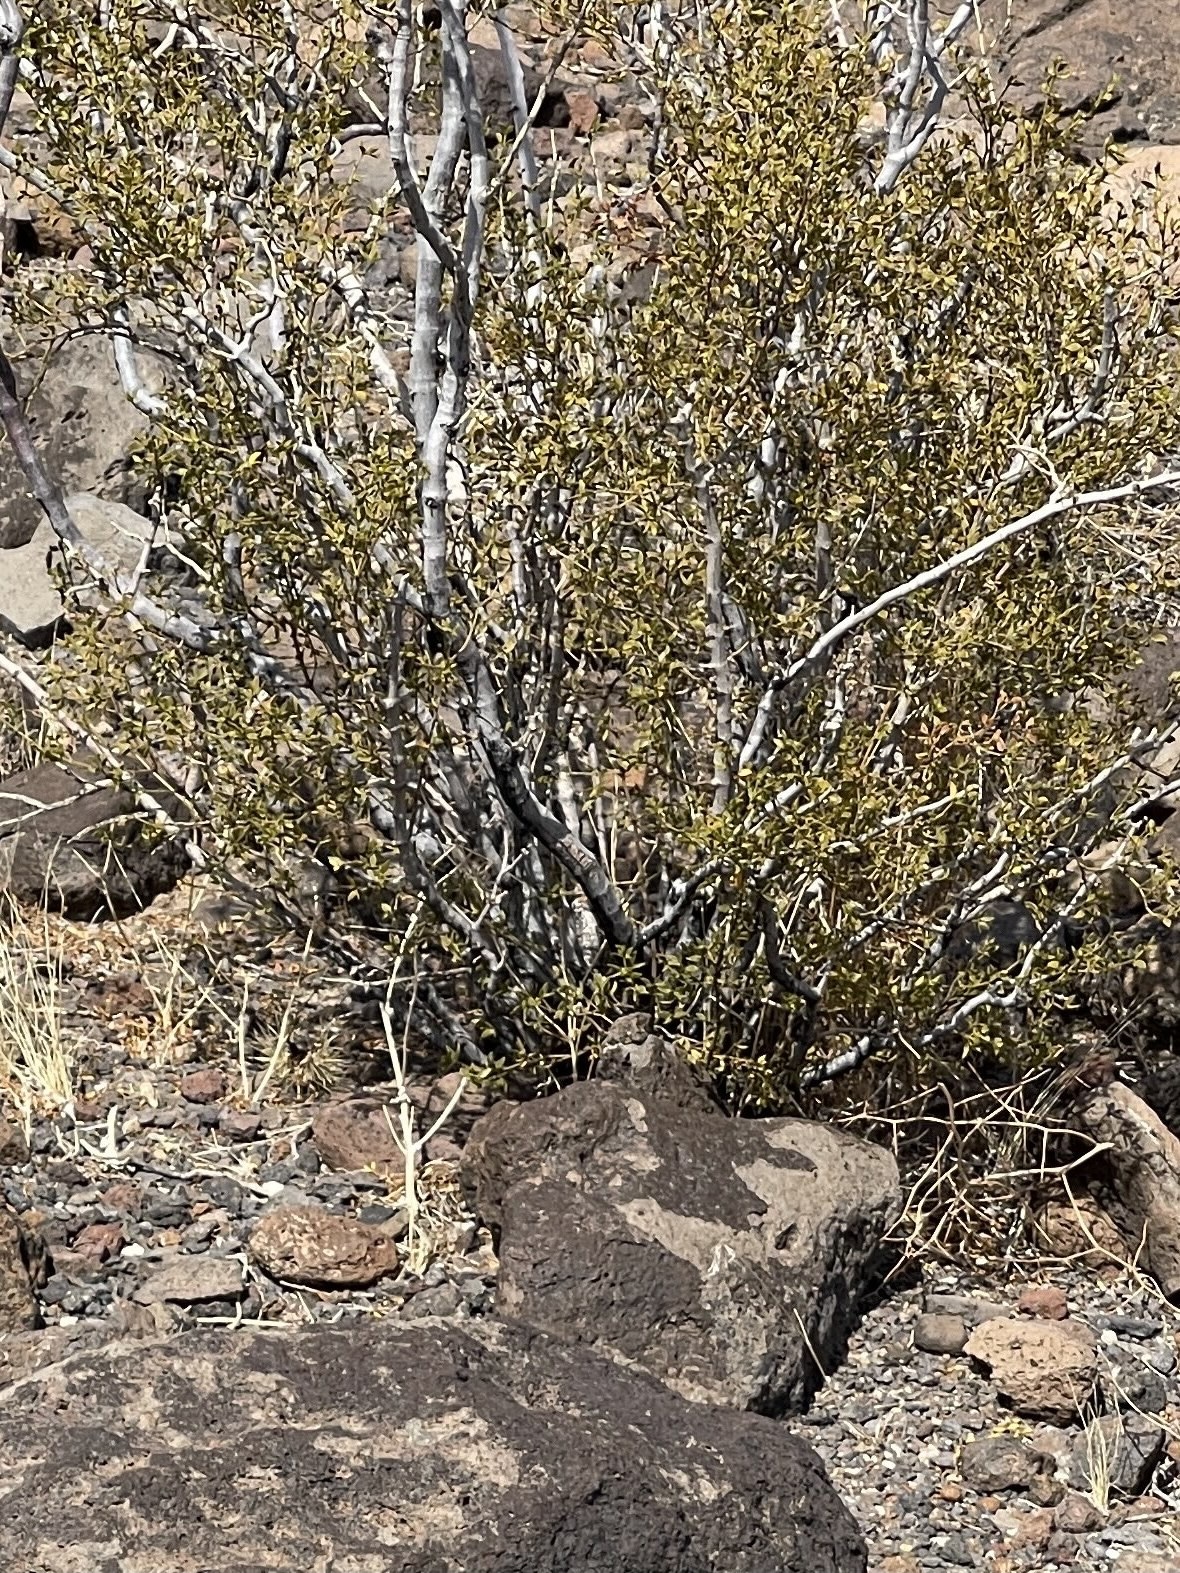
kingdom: Plantae
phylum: Tracheophyta
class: Magnoliopsida
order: Zygophyllales
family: Zygophyllaceae
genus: Larrea
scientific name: Larrea tridentata
